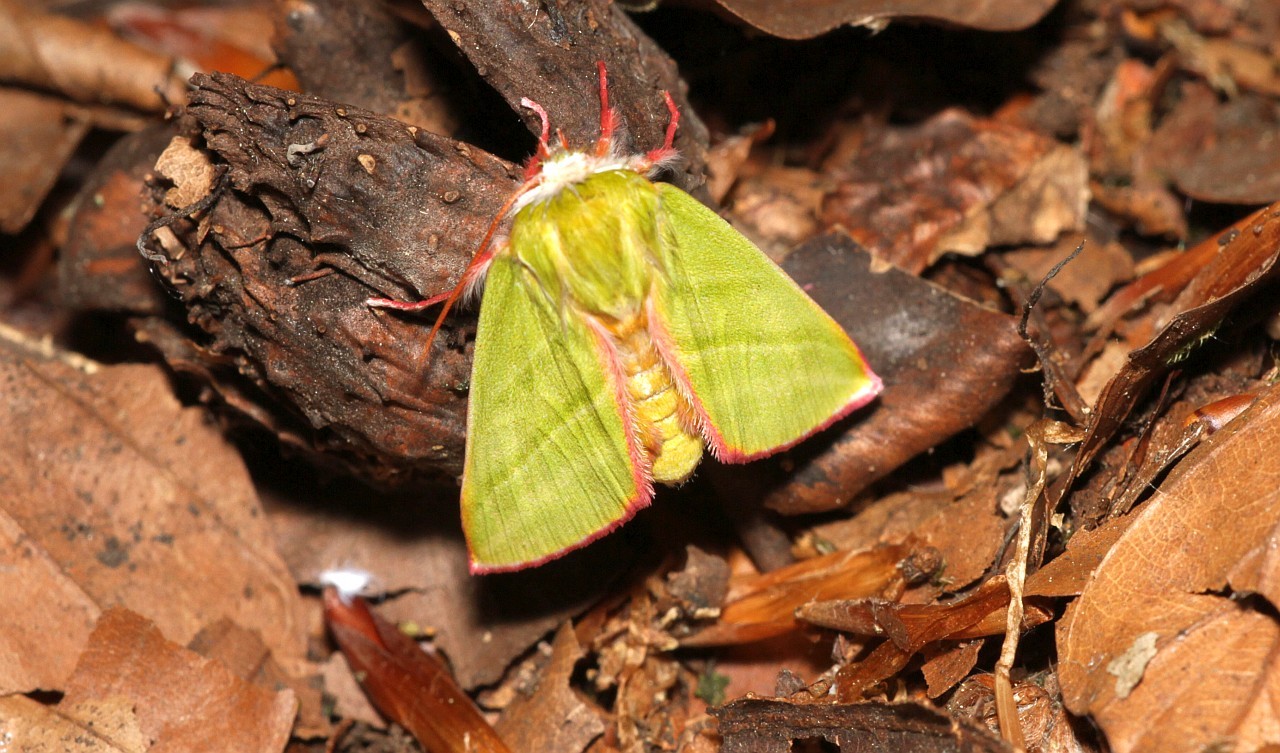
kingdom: Animalia
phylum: Arthropoda
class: Insecta
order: Lepidoptera
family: Nolidae
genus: Pseudoips
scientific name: Pseudoips prasinana
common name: Green silver-lines
